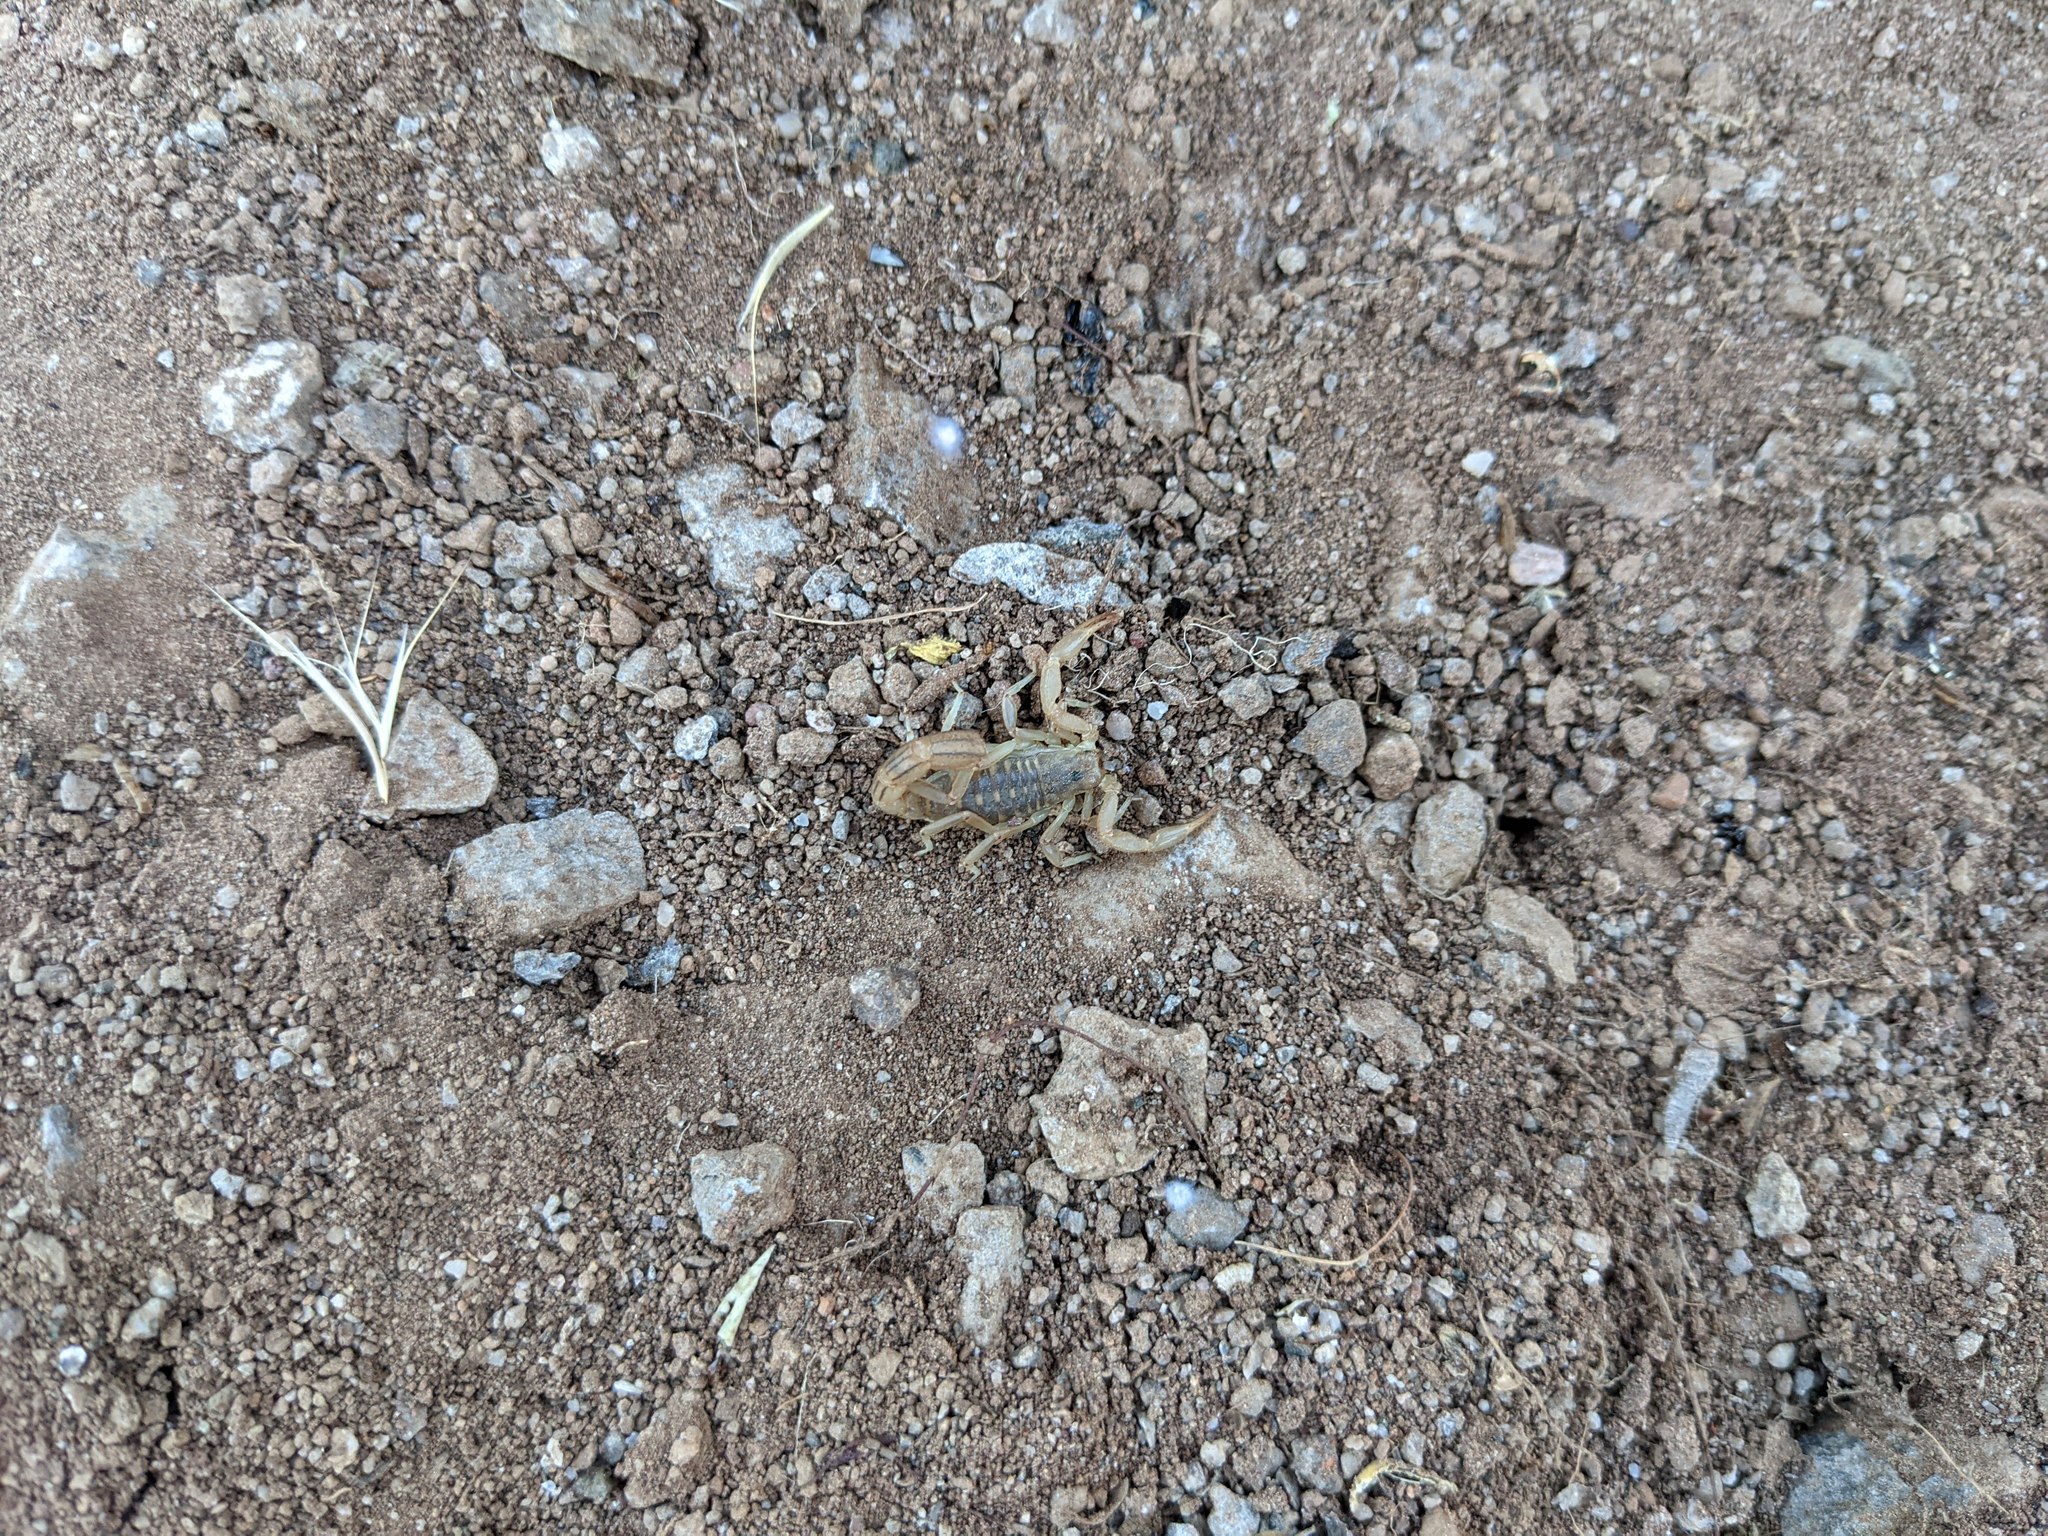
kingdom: Animalia
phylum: Arthropoda
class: Arachnida
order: Scorpiones
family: Vaejovidae
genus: Paravaejovis
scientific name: Paravaejovis spinigerus
